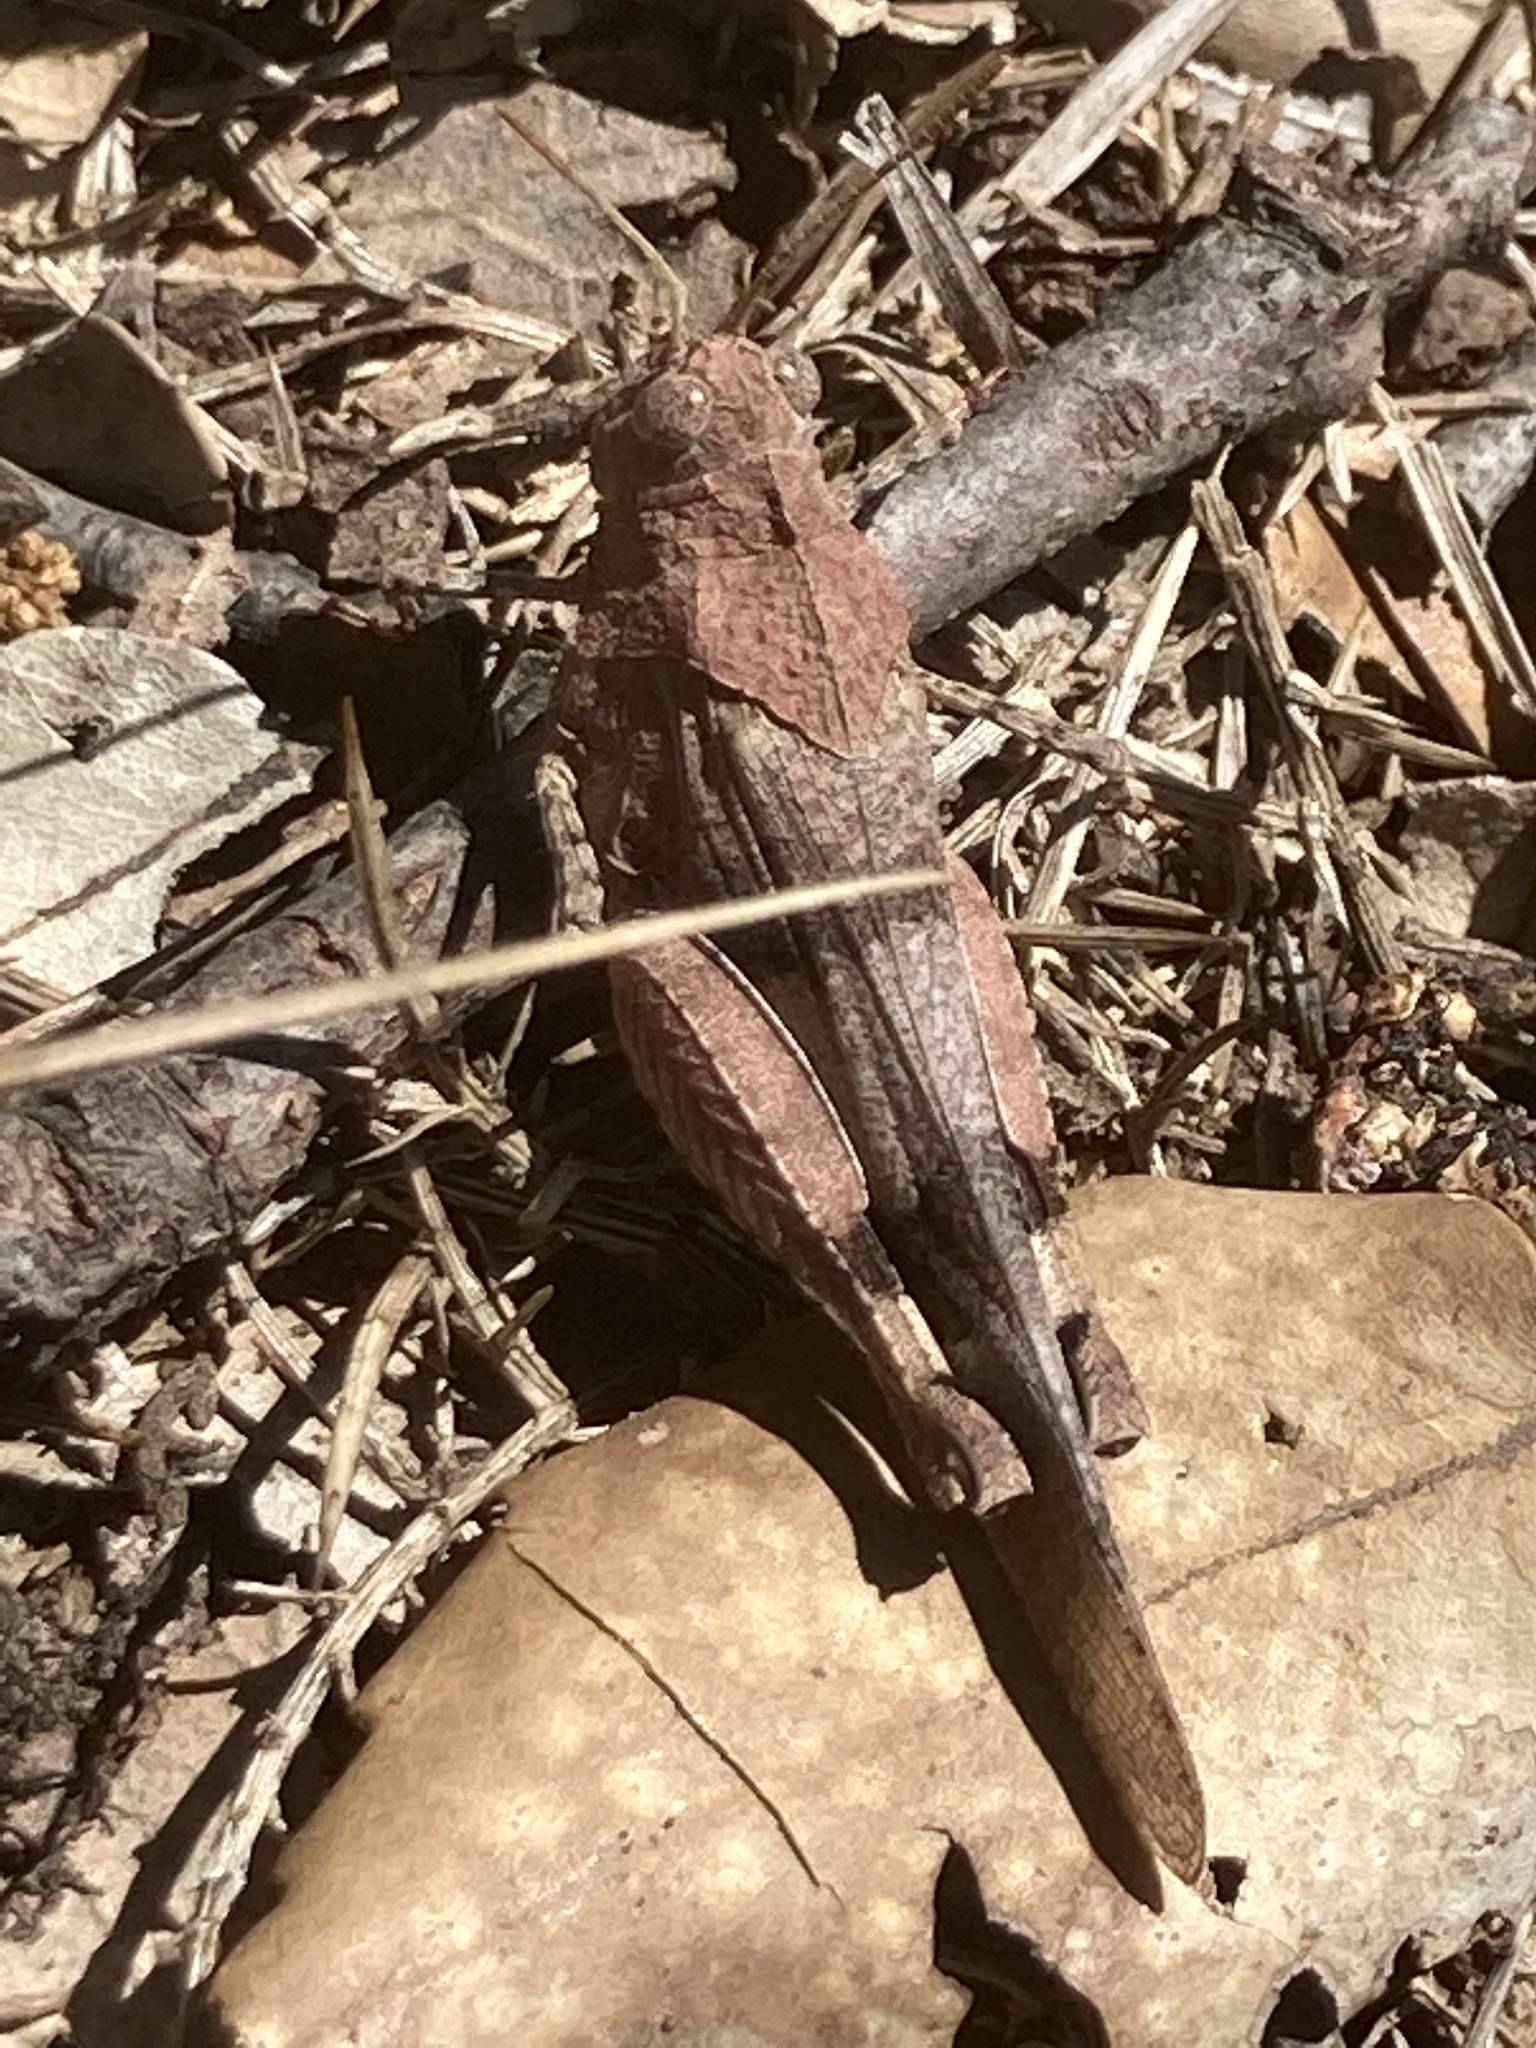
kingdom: Animalia
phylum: Arthropoda
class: Insecta
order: Orthoptera
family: Acrididae
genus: Oedipoda
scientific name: Oedipoda caerulescens
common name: Blue-winged grasshopper
